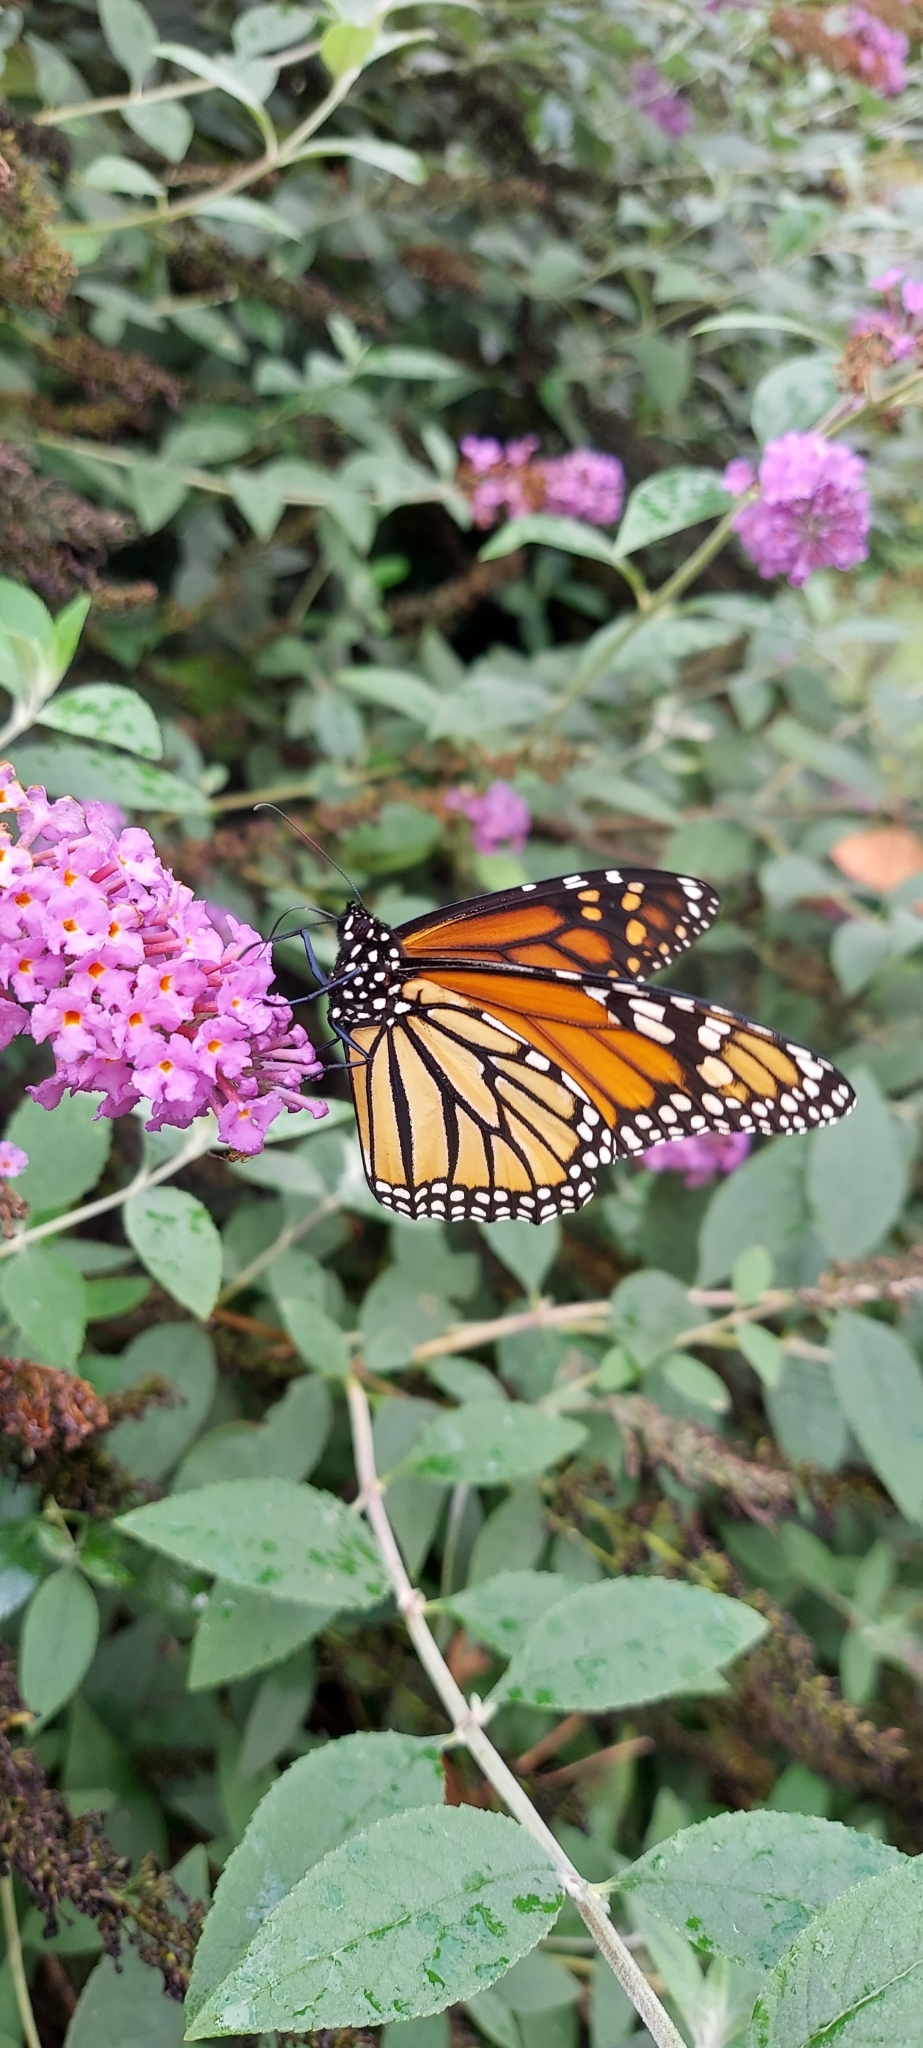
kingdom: Animalia
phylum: Arthropoda
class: Insecta
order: Lepidoptera
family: Nymphalidae
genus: Danaus
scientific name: Danaus plexippus
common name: Monarch
